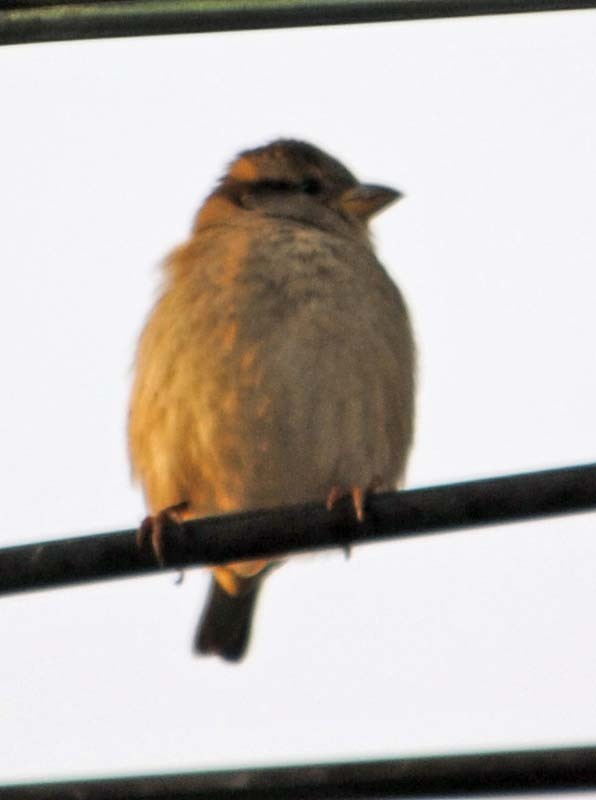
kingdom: Animalia
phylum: Chordata
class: Aves
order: Passeriformes
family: Passeridae
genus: Passer
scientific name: Passer domesticus
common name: House sparrow
